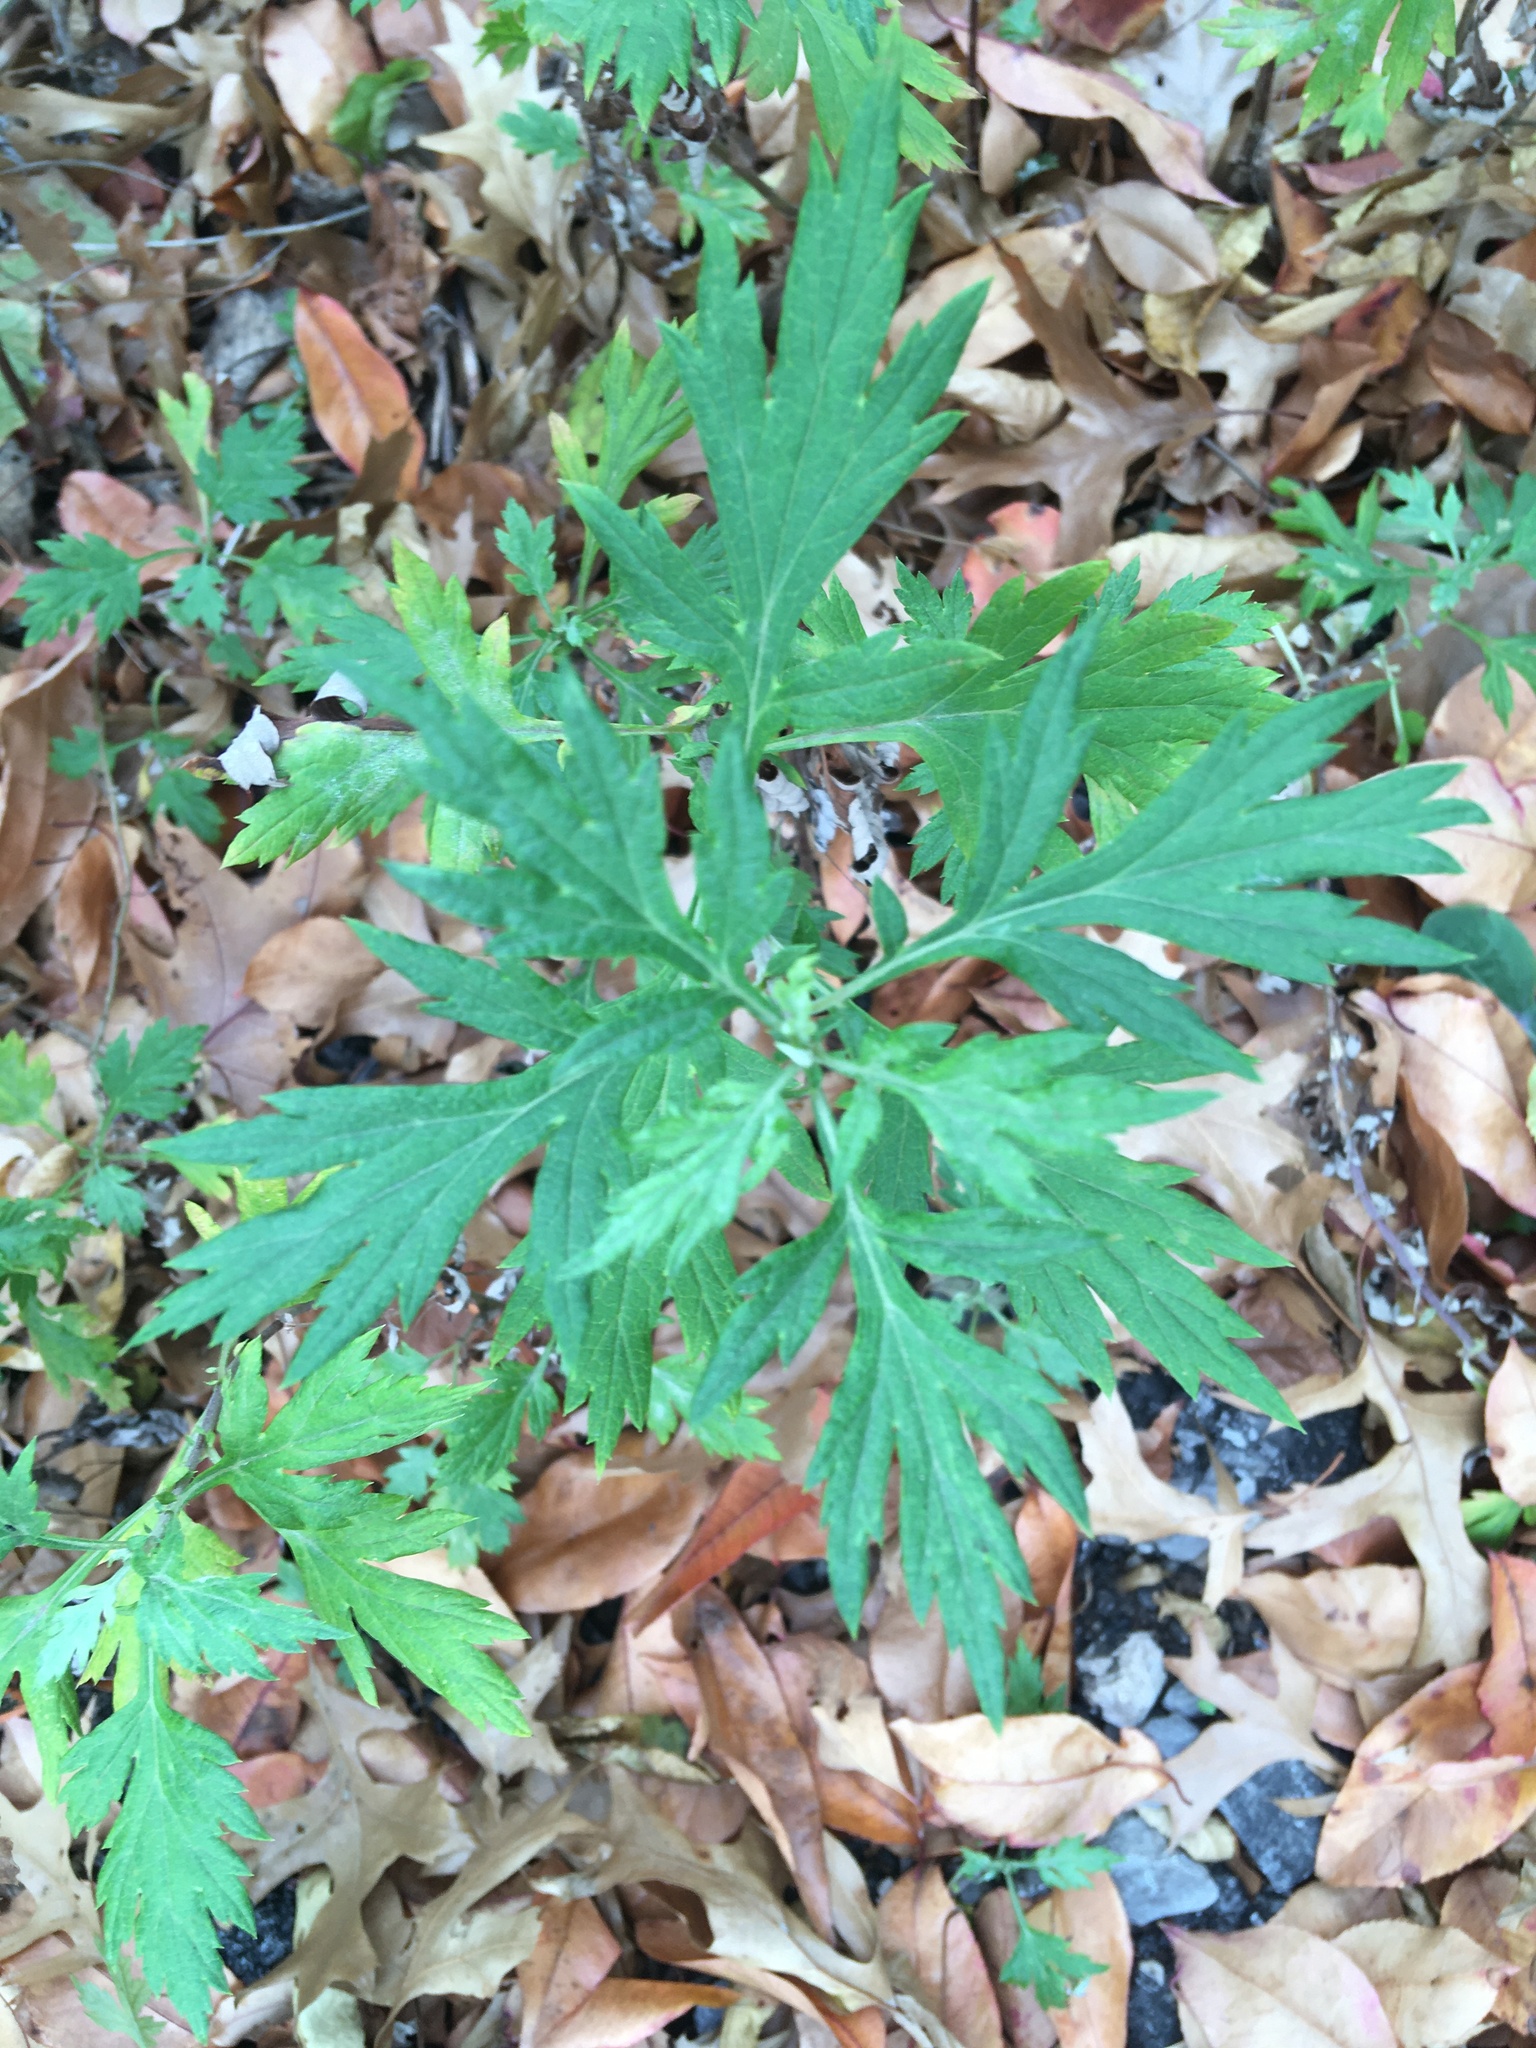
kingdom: Plantae
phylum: Tracheophyta
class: Magnoliopsida
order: Asterales
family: Asteraceae
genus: Artemisia
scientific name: Artemisia vulgaris
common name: Mugwort
